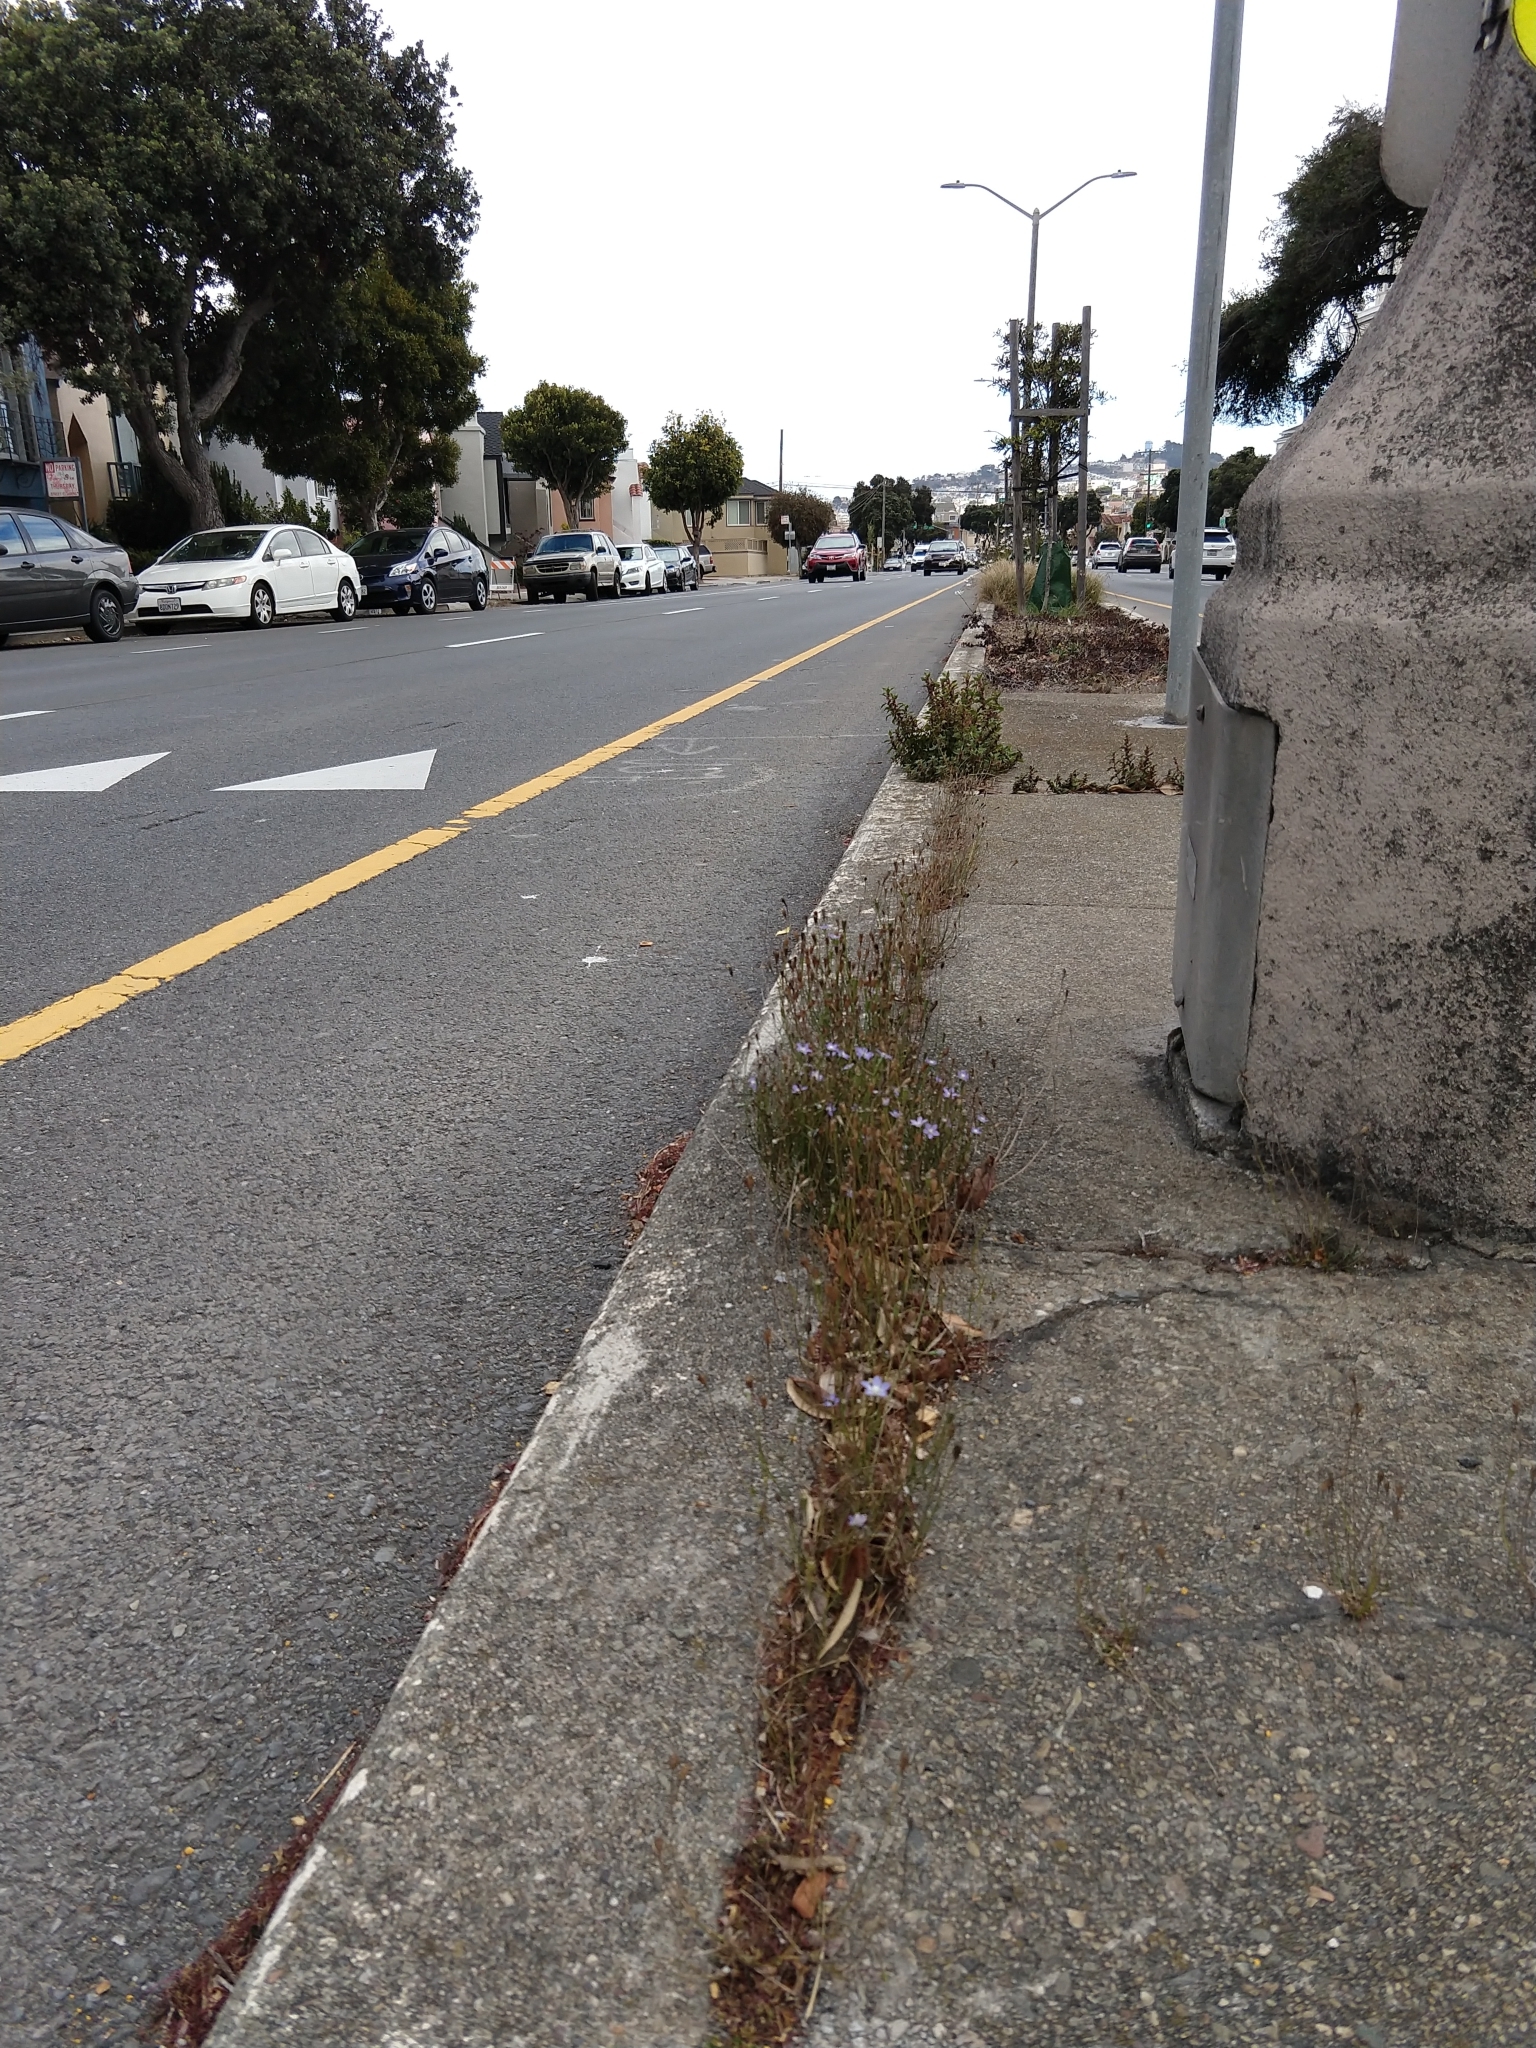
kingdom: Plantae
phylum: Tracheophyta
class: Magnoliopsida
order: Asterales
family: Campanulaceae
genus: Wahlenbergia
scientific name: Wahlenbergia marginata
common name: Southern rockbell
